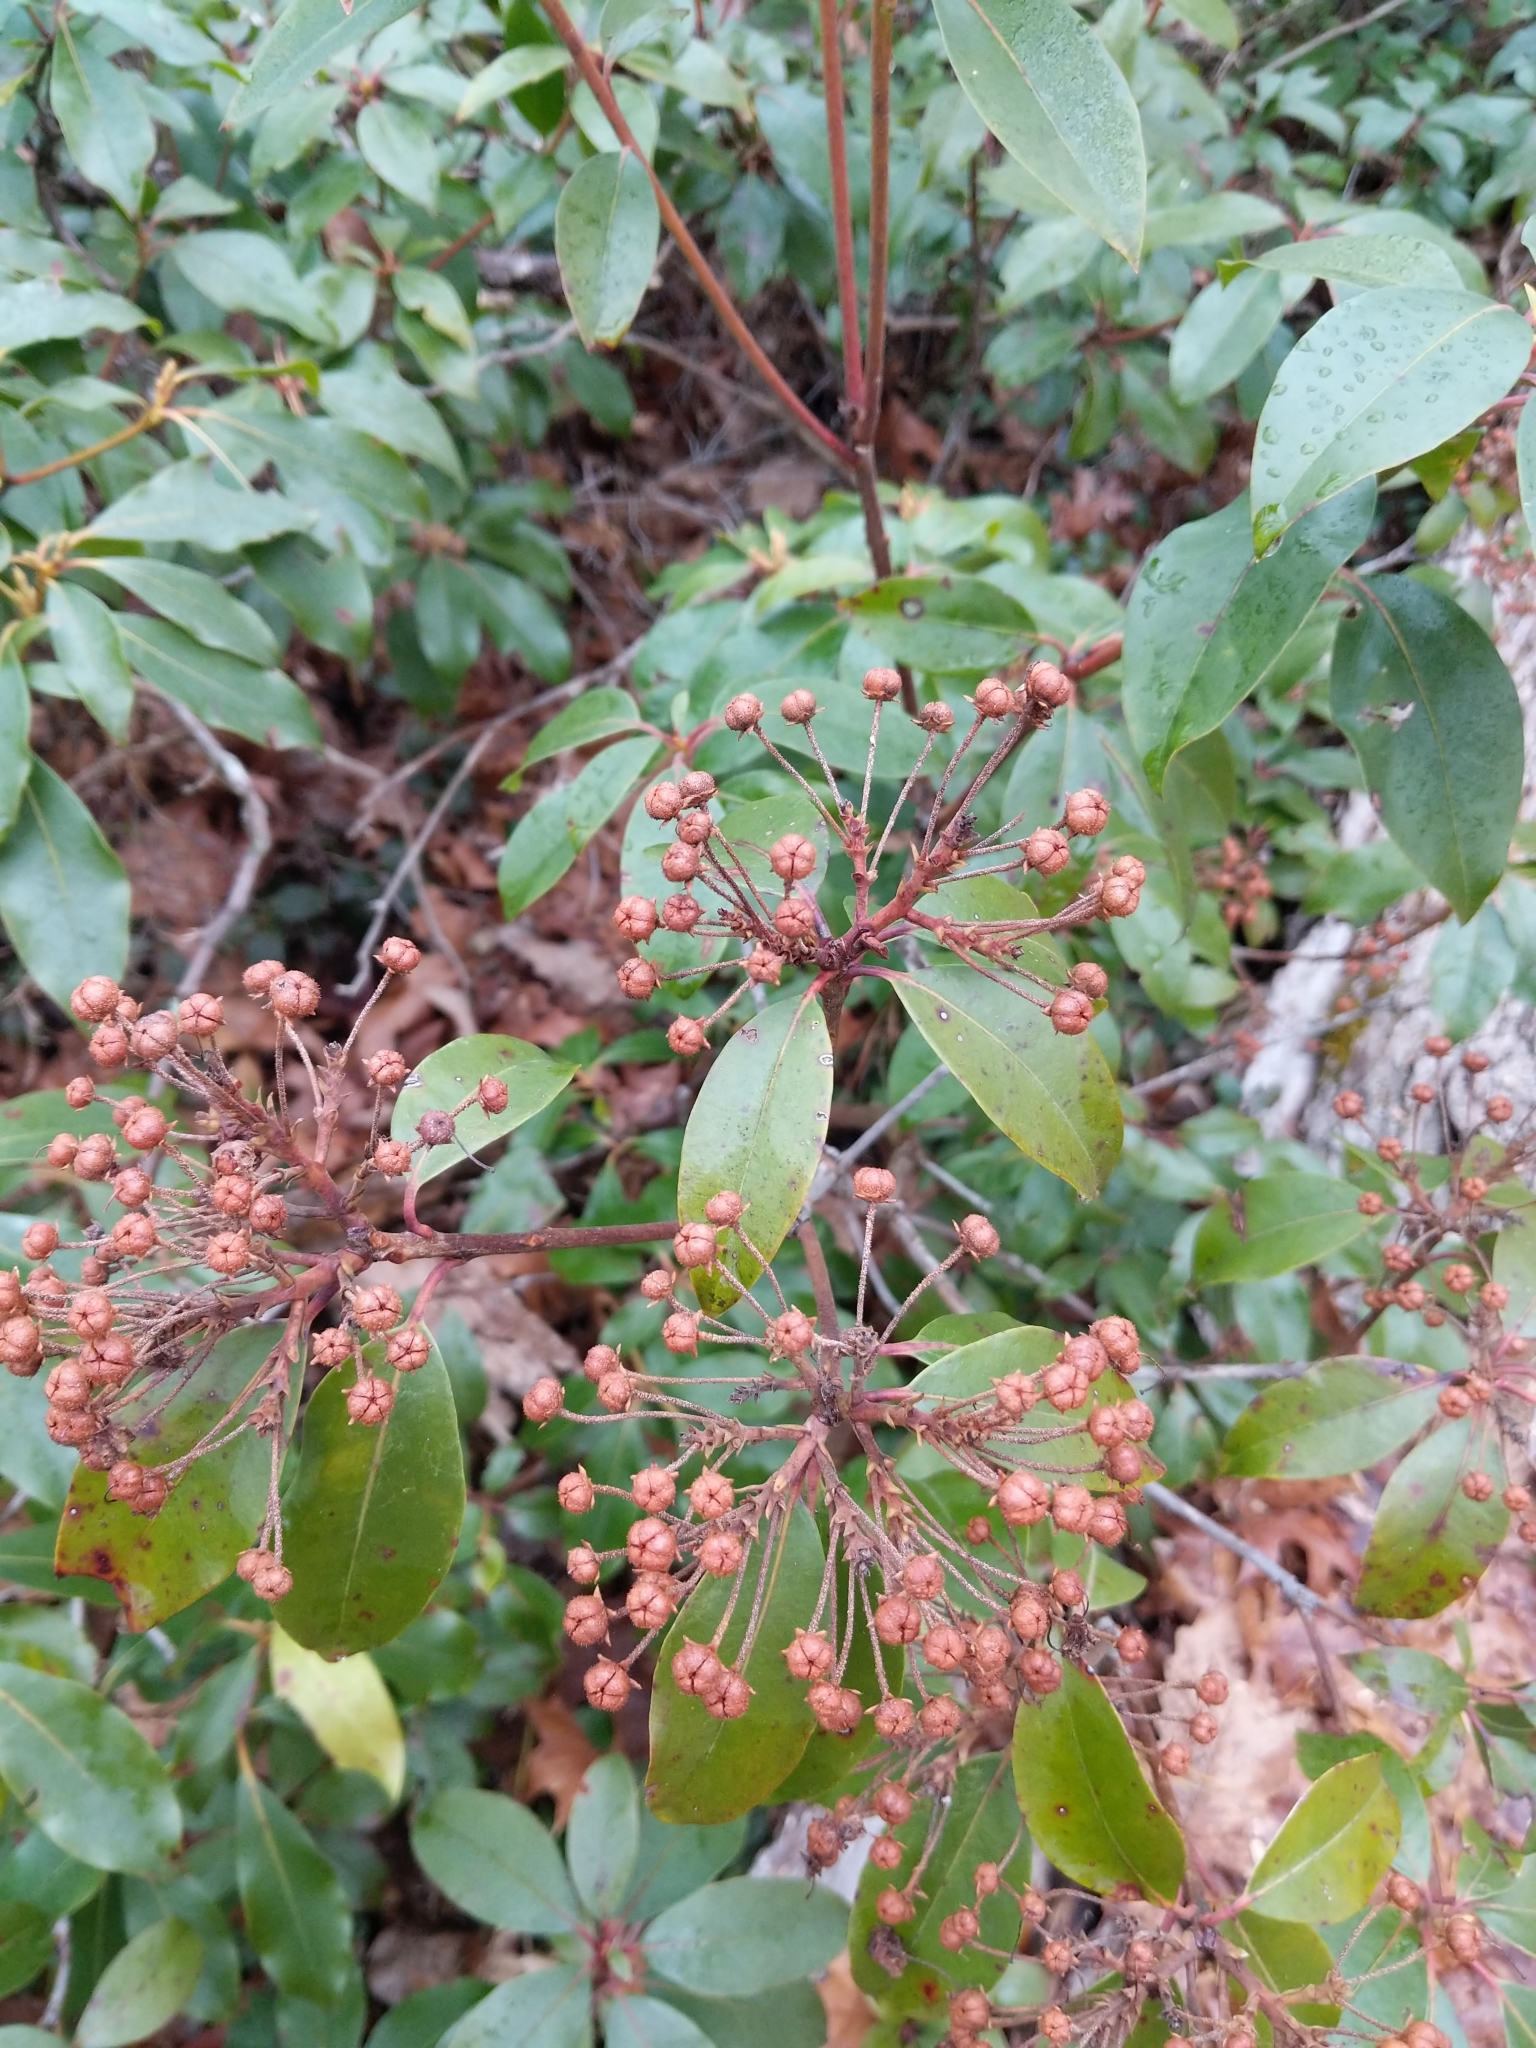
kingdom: Plantae
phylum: Tracheophyta
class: Magnoliopsida
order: Ericales
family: Ericaceae
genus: Kalmia
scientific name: Kalmia latifolia
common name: Mountain-laurel
